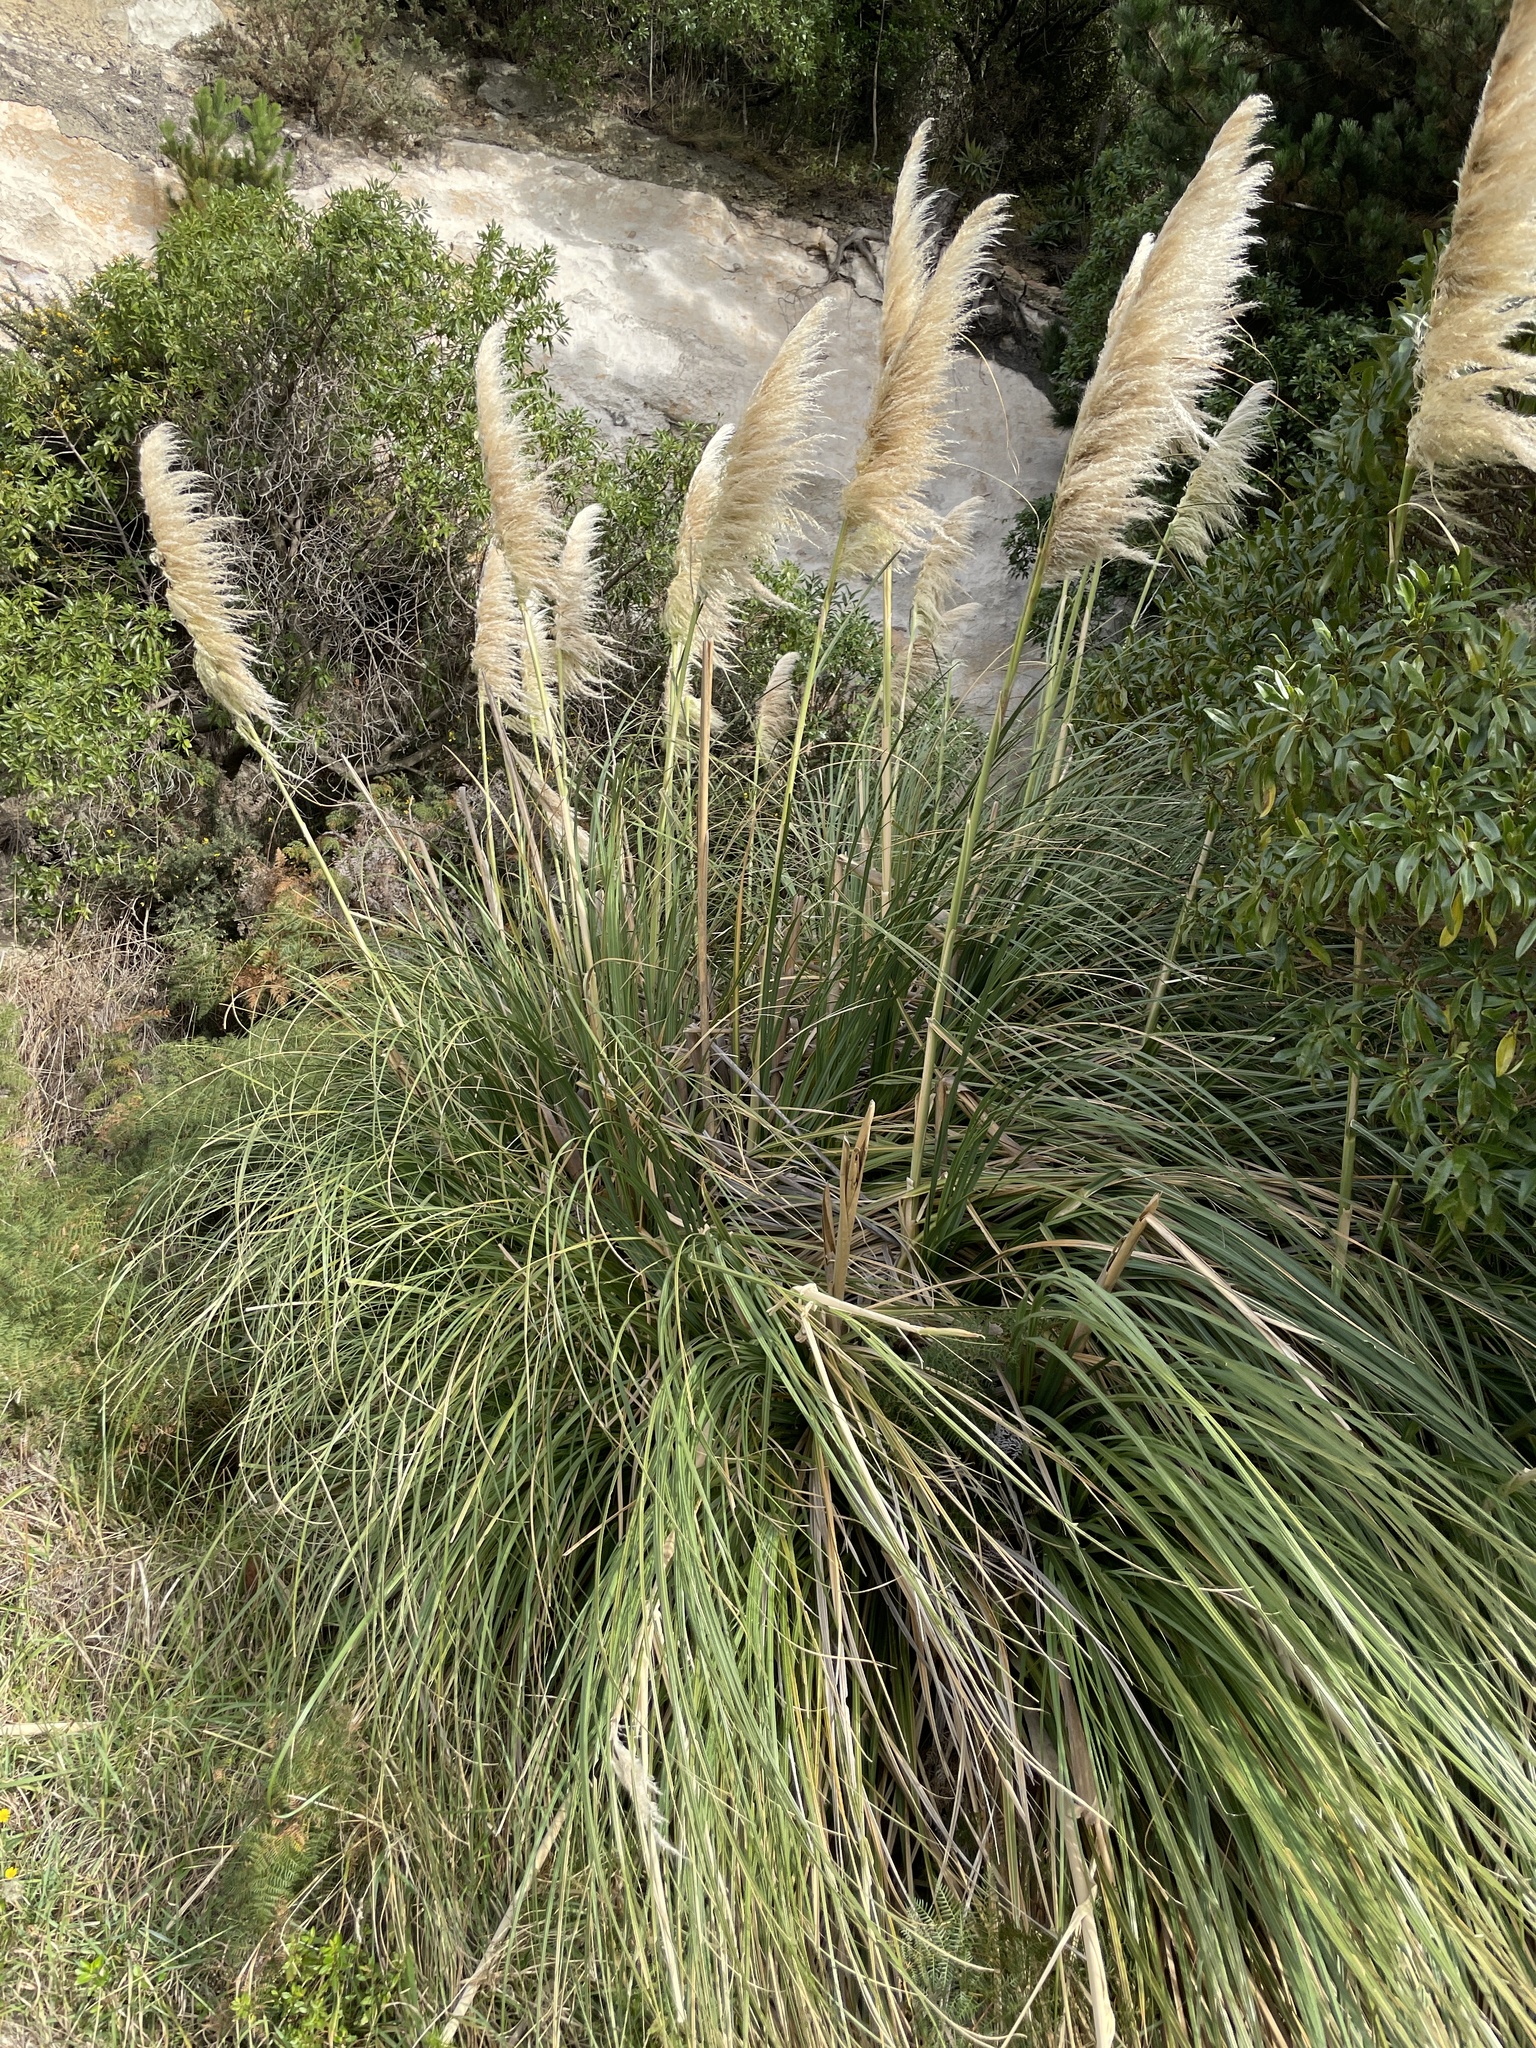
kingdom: Plantae
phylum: Tracheophyta
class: Liliopsida
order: Poales
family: Poaceae
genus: Cortaderia
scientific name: Cortaderia selloana
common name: Uruguayan pampas grass
